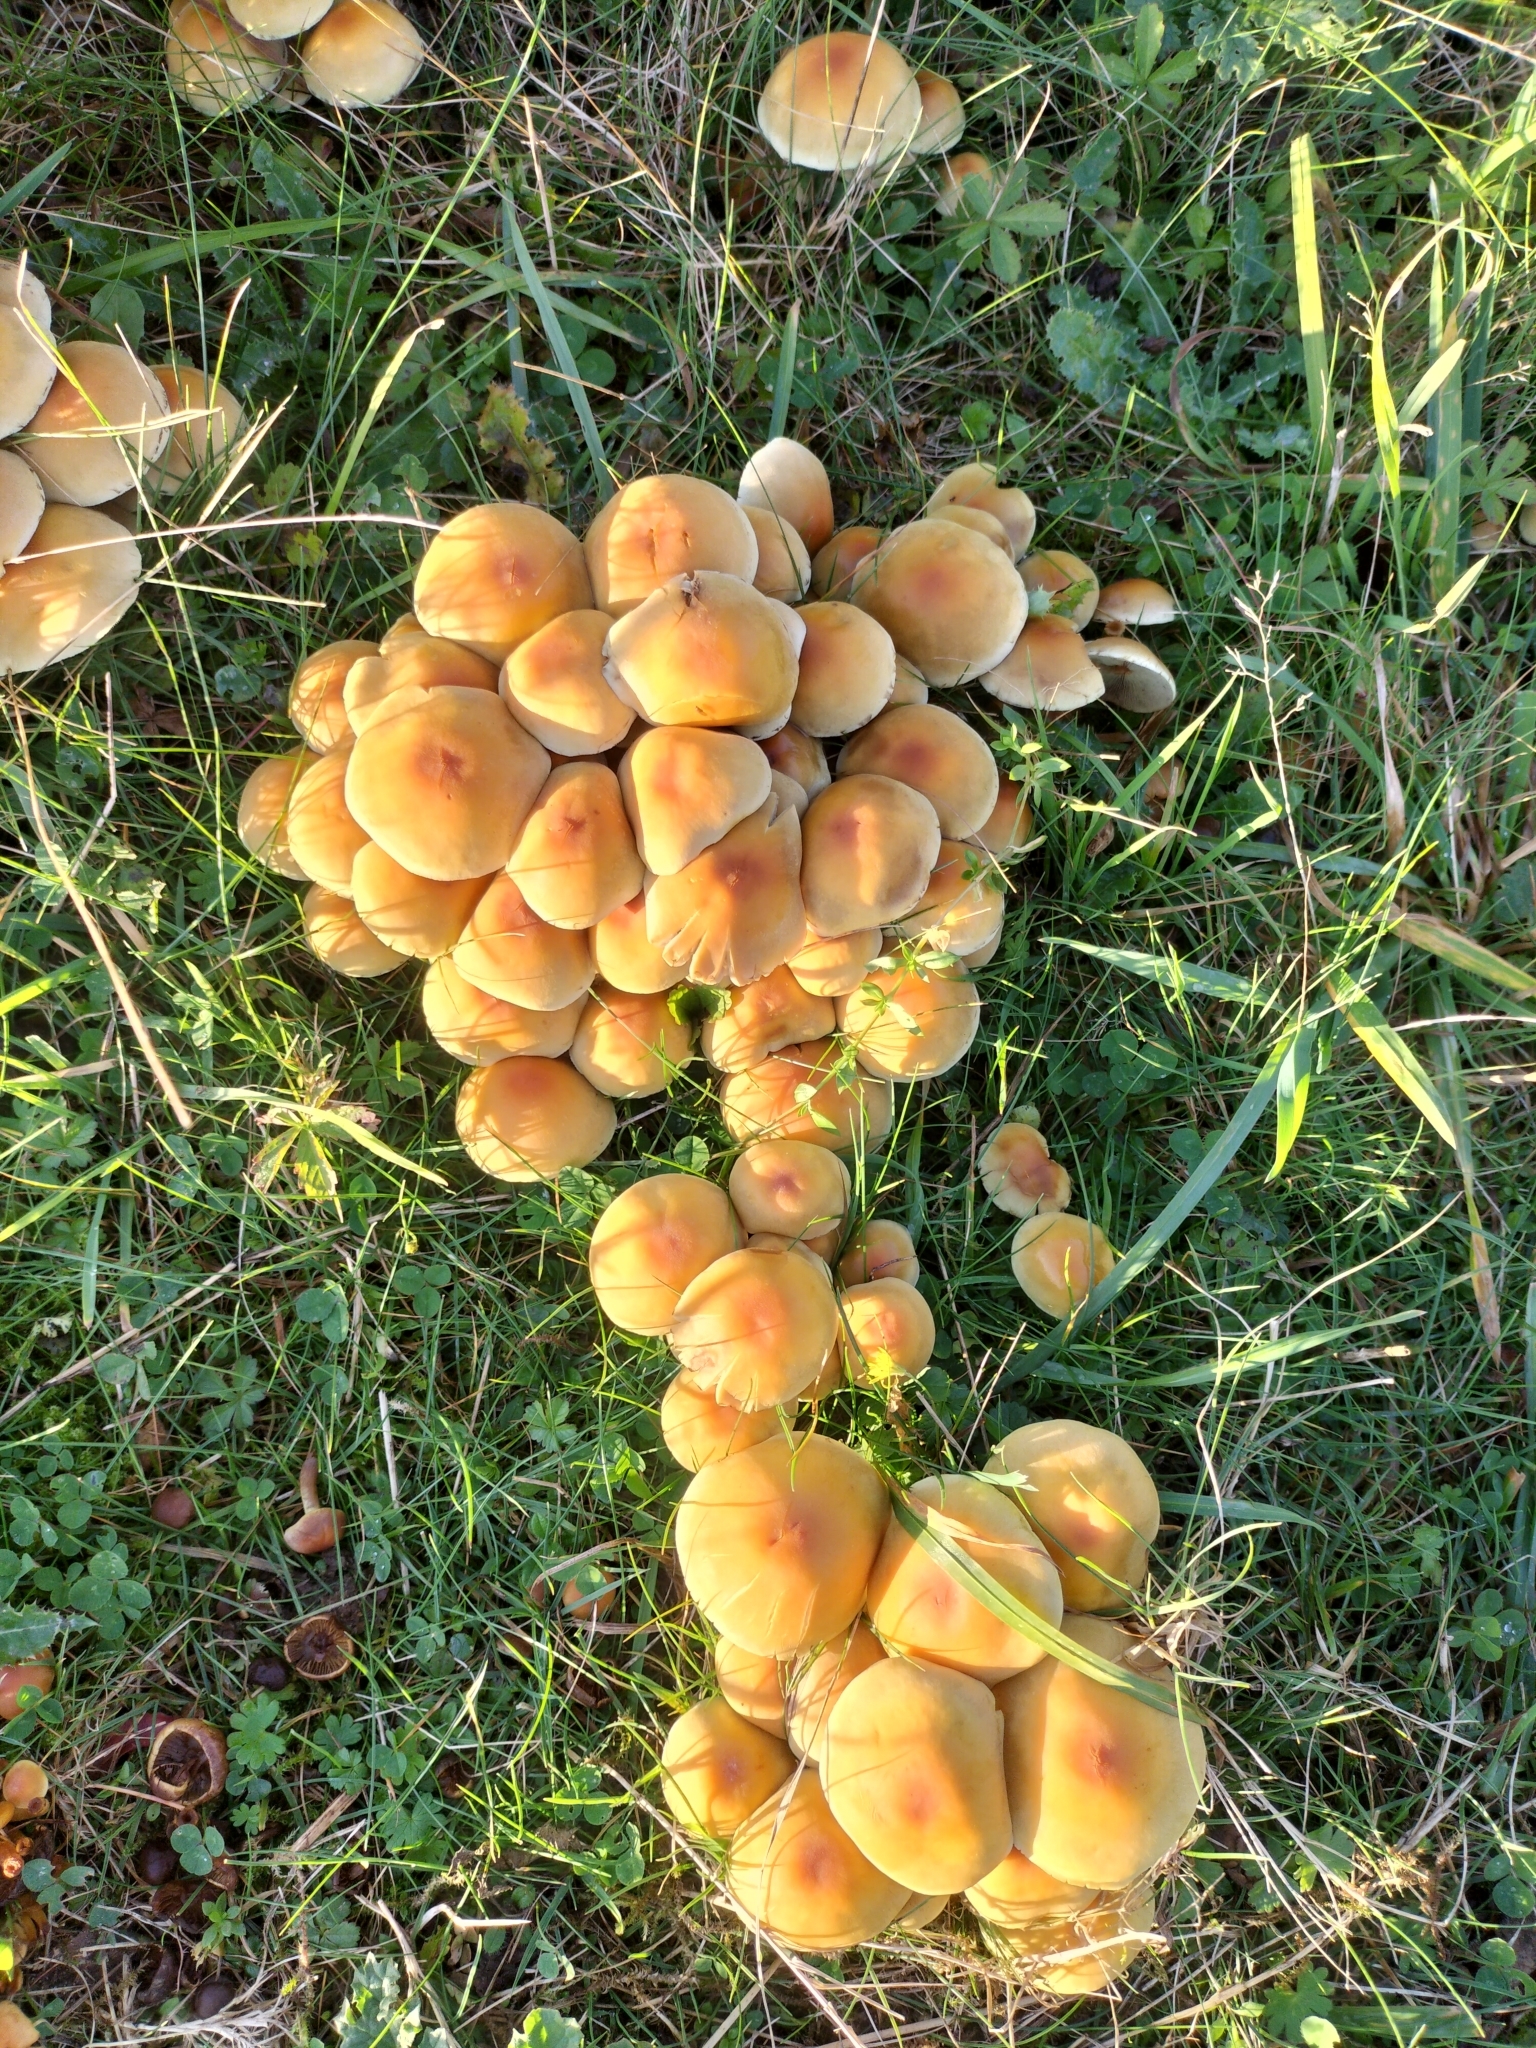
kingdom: Fungi
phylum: Basidiomycota
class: Agaricomycetes
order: Agaricales
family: Strophariaceae
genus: Hypholoma
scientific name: Hypholoma fasciculare
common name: Sulphur tuft
